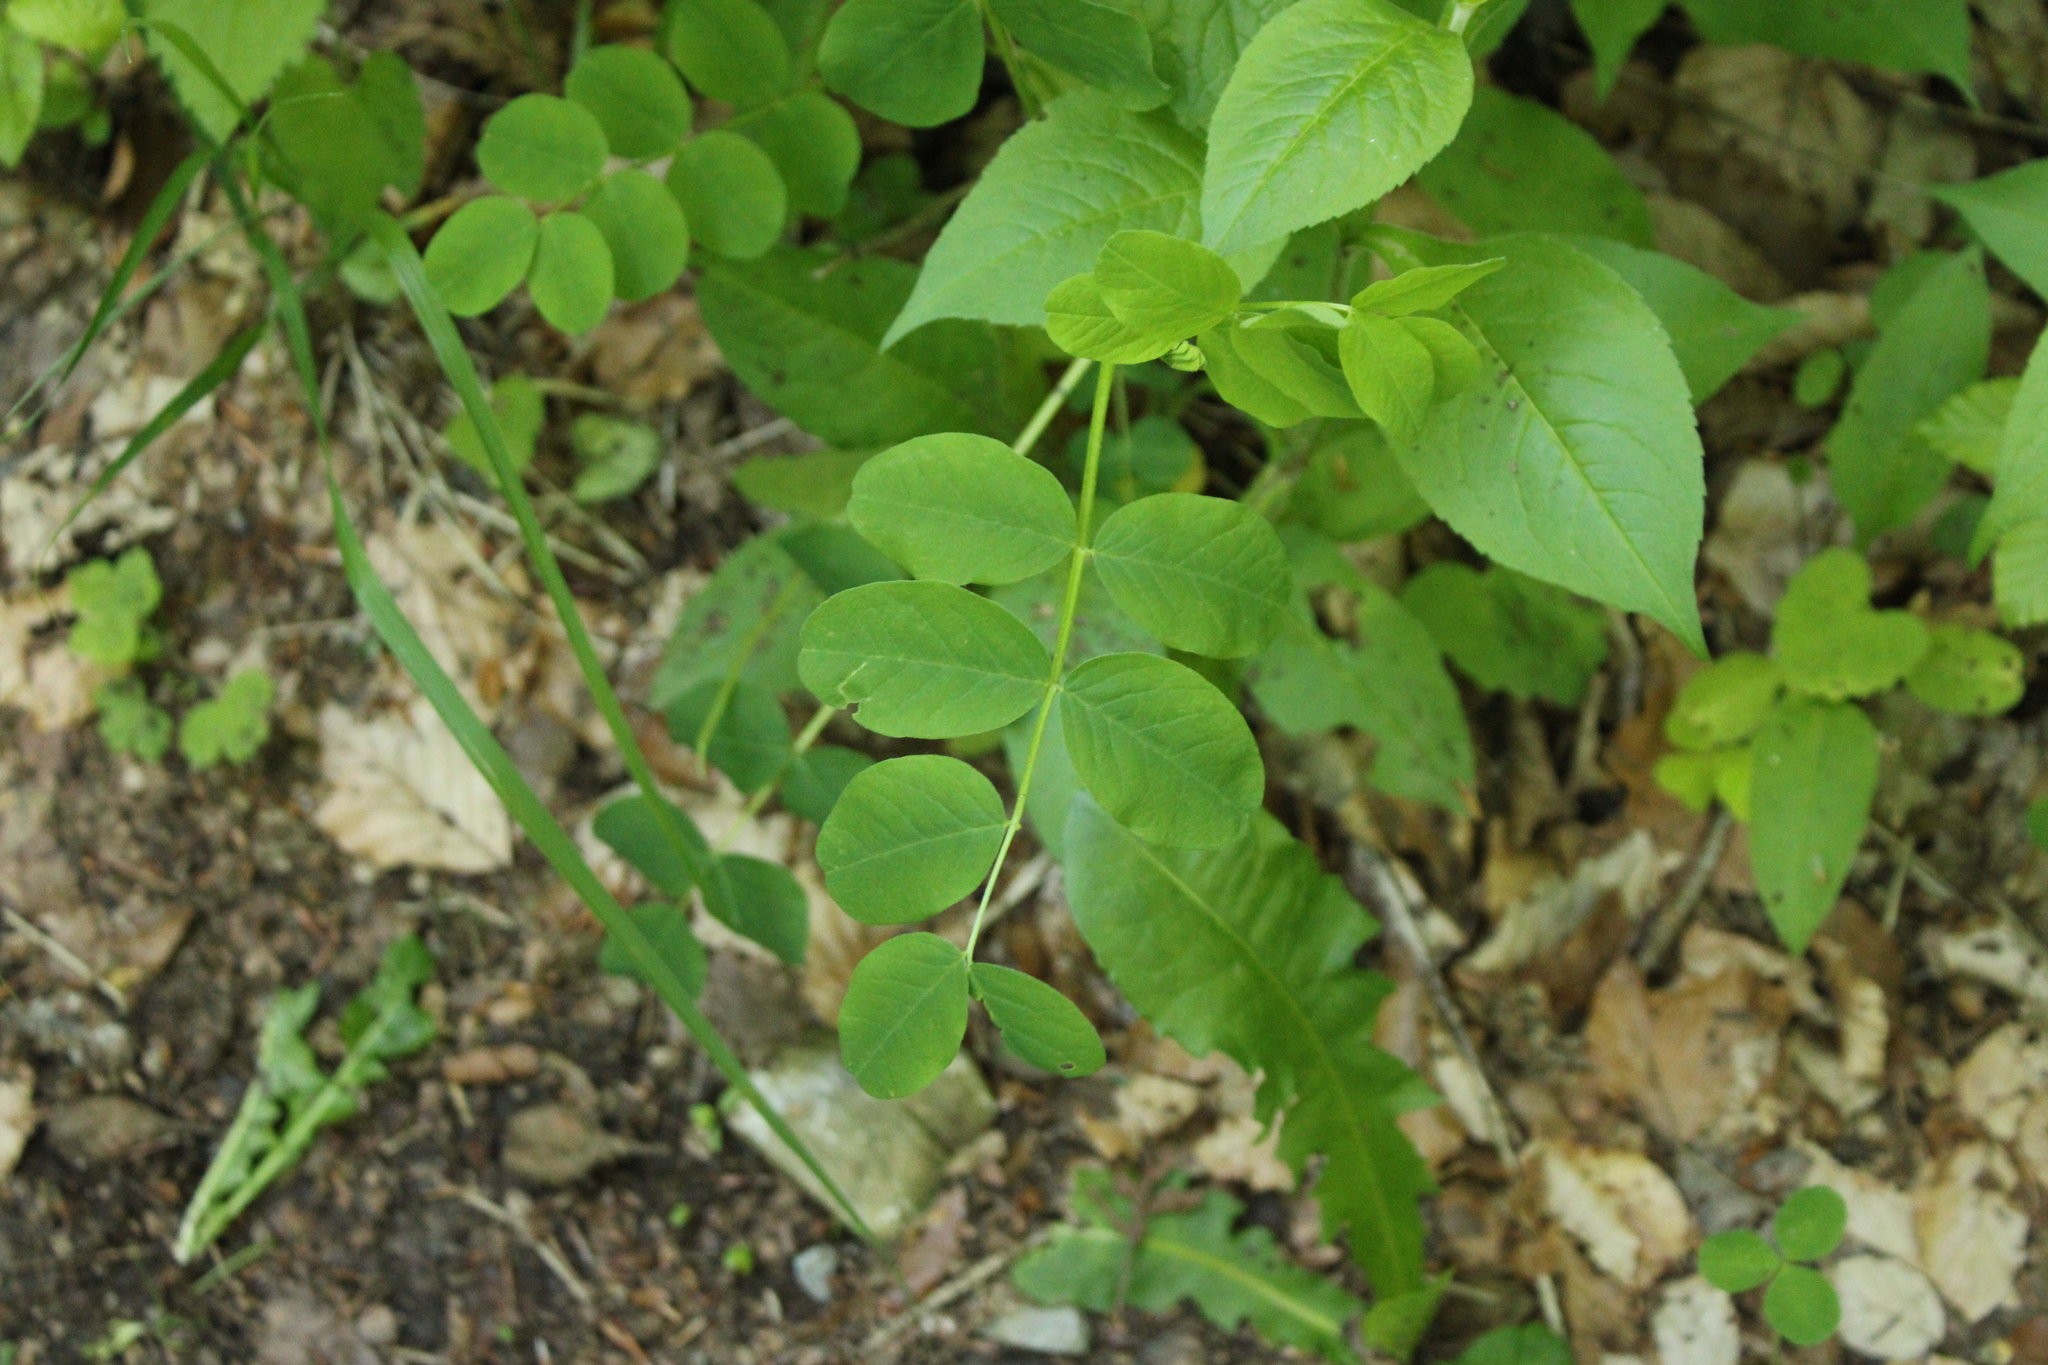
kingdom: Plantae
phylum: Tracheophyta
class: Magnoliopsida
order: Fabales
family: Fabaceae
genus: Astragalus
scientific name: Astragalus glycyphyllos
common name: Wild liquorice
